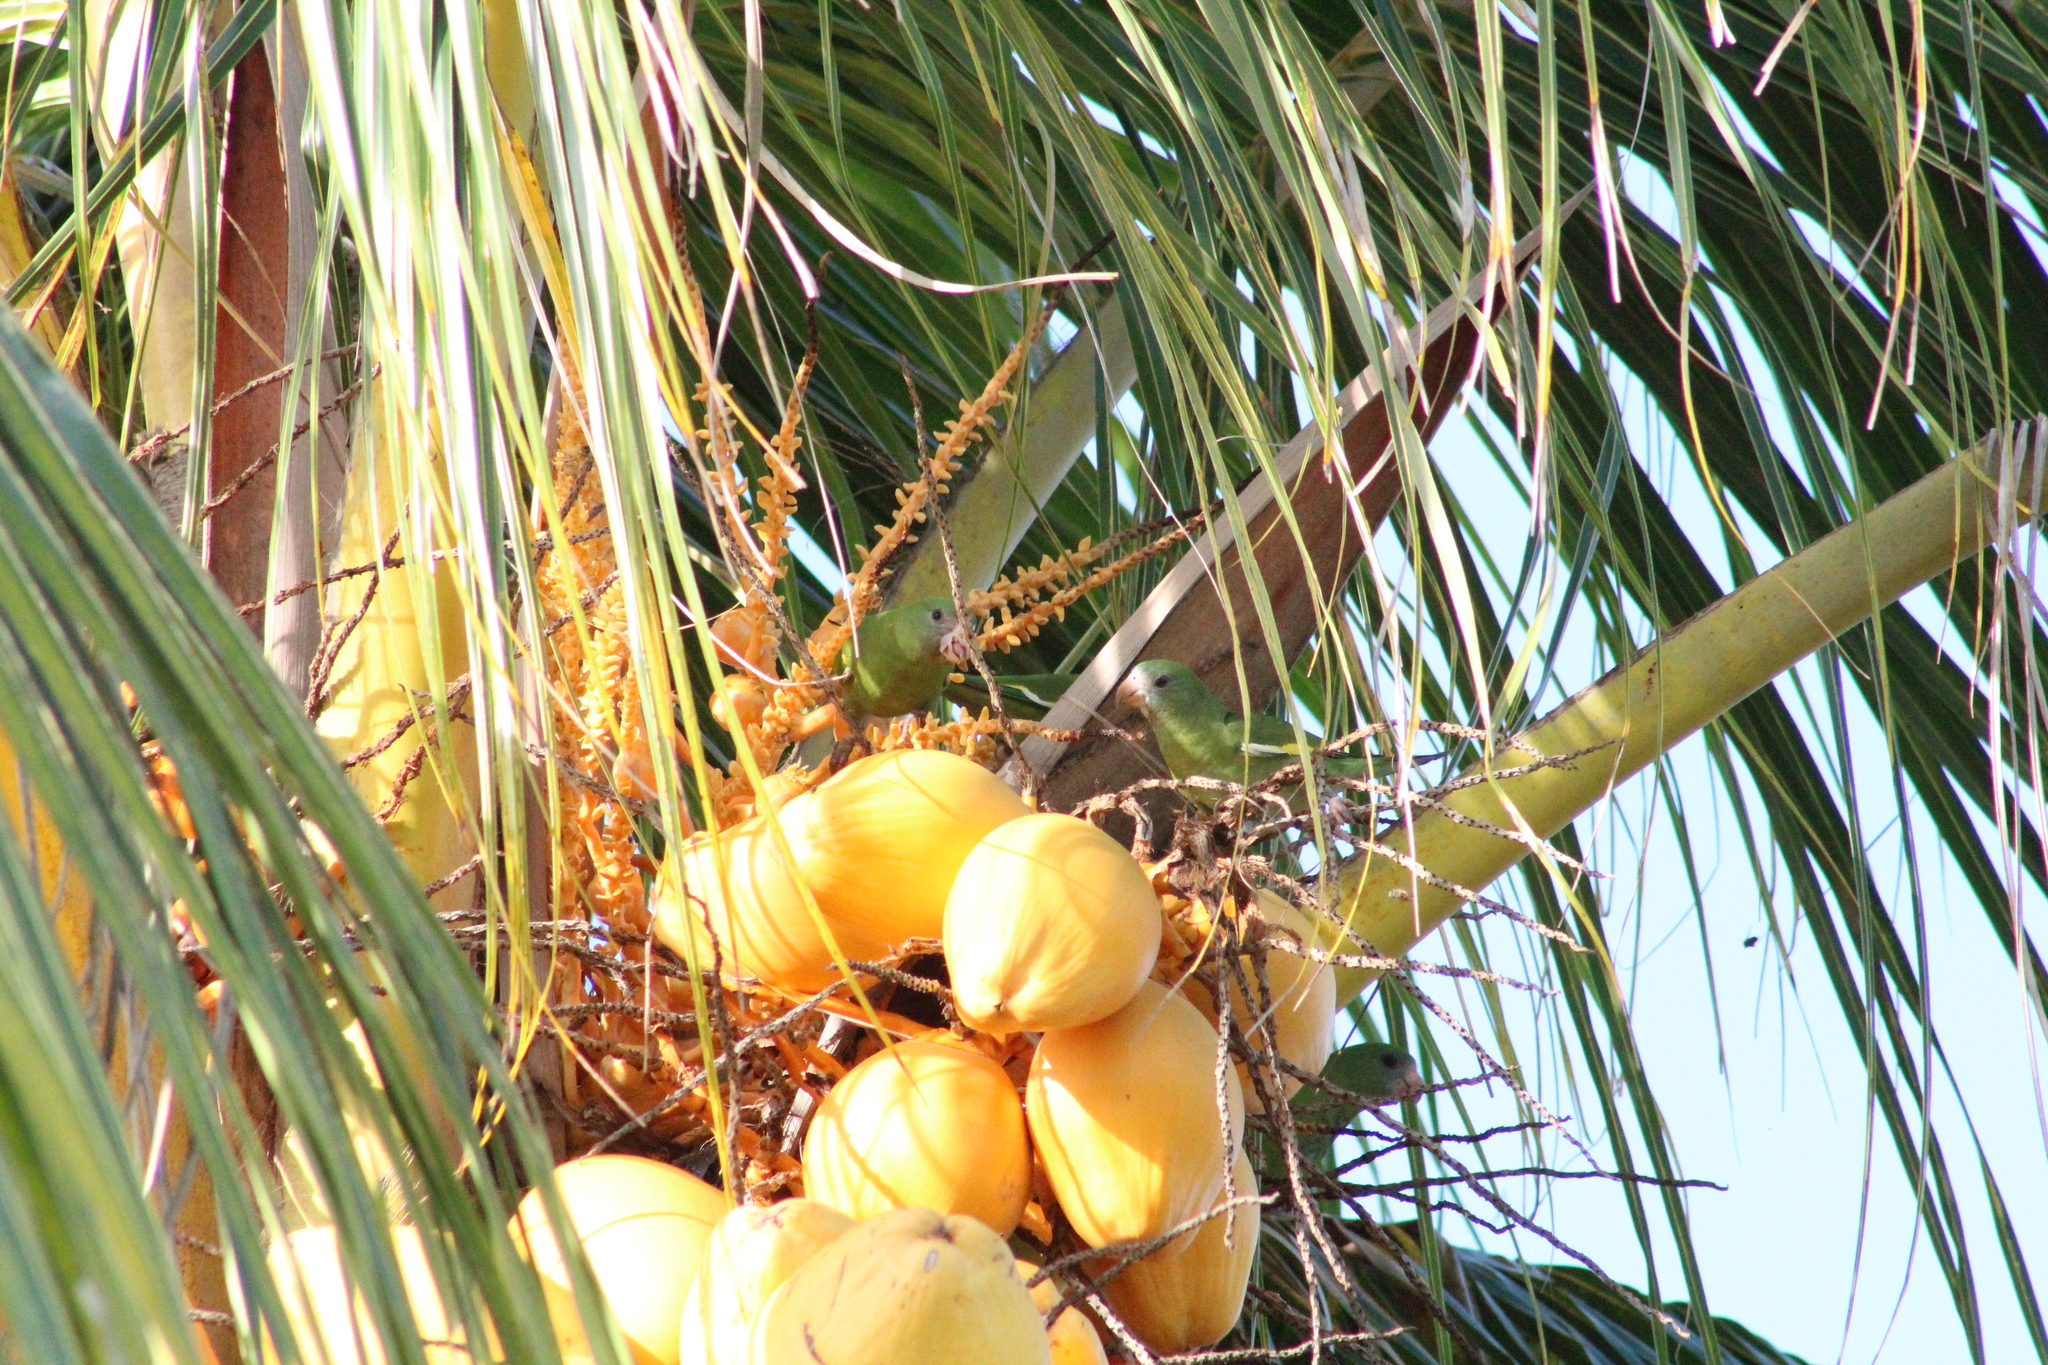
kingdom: Animalia
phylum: Chordata
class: Aves
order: Psittaciformes
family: Psittacidae
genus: Brotogeris
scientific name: Brotogeris versicolurus
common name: White-winged parakeet
